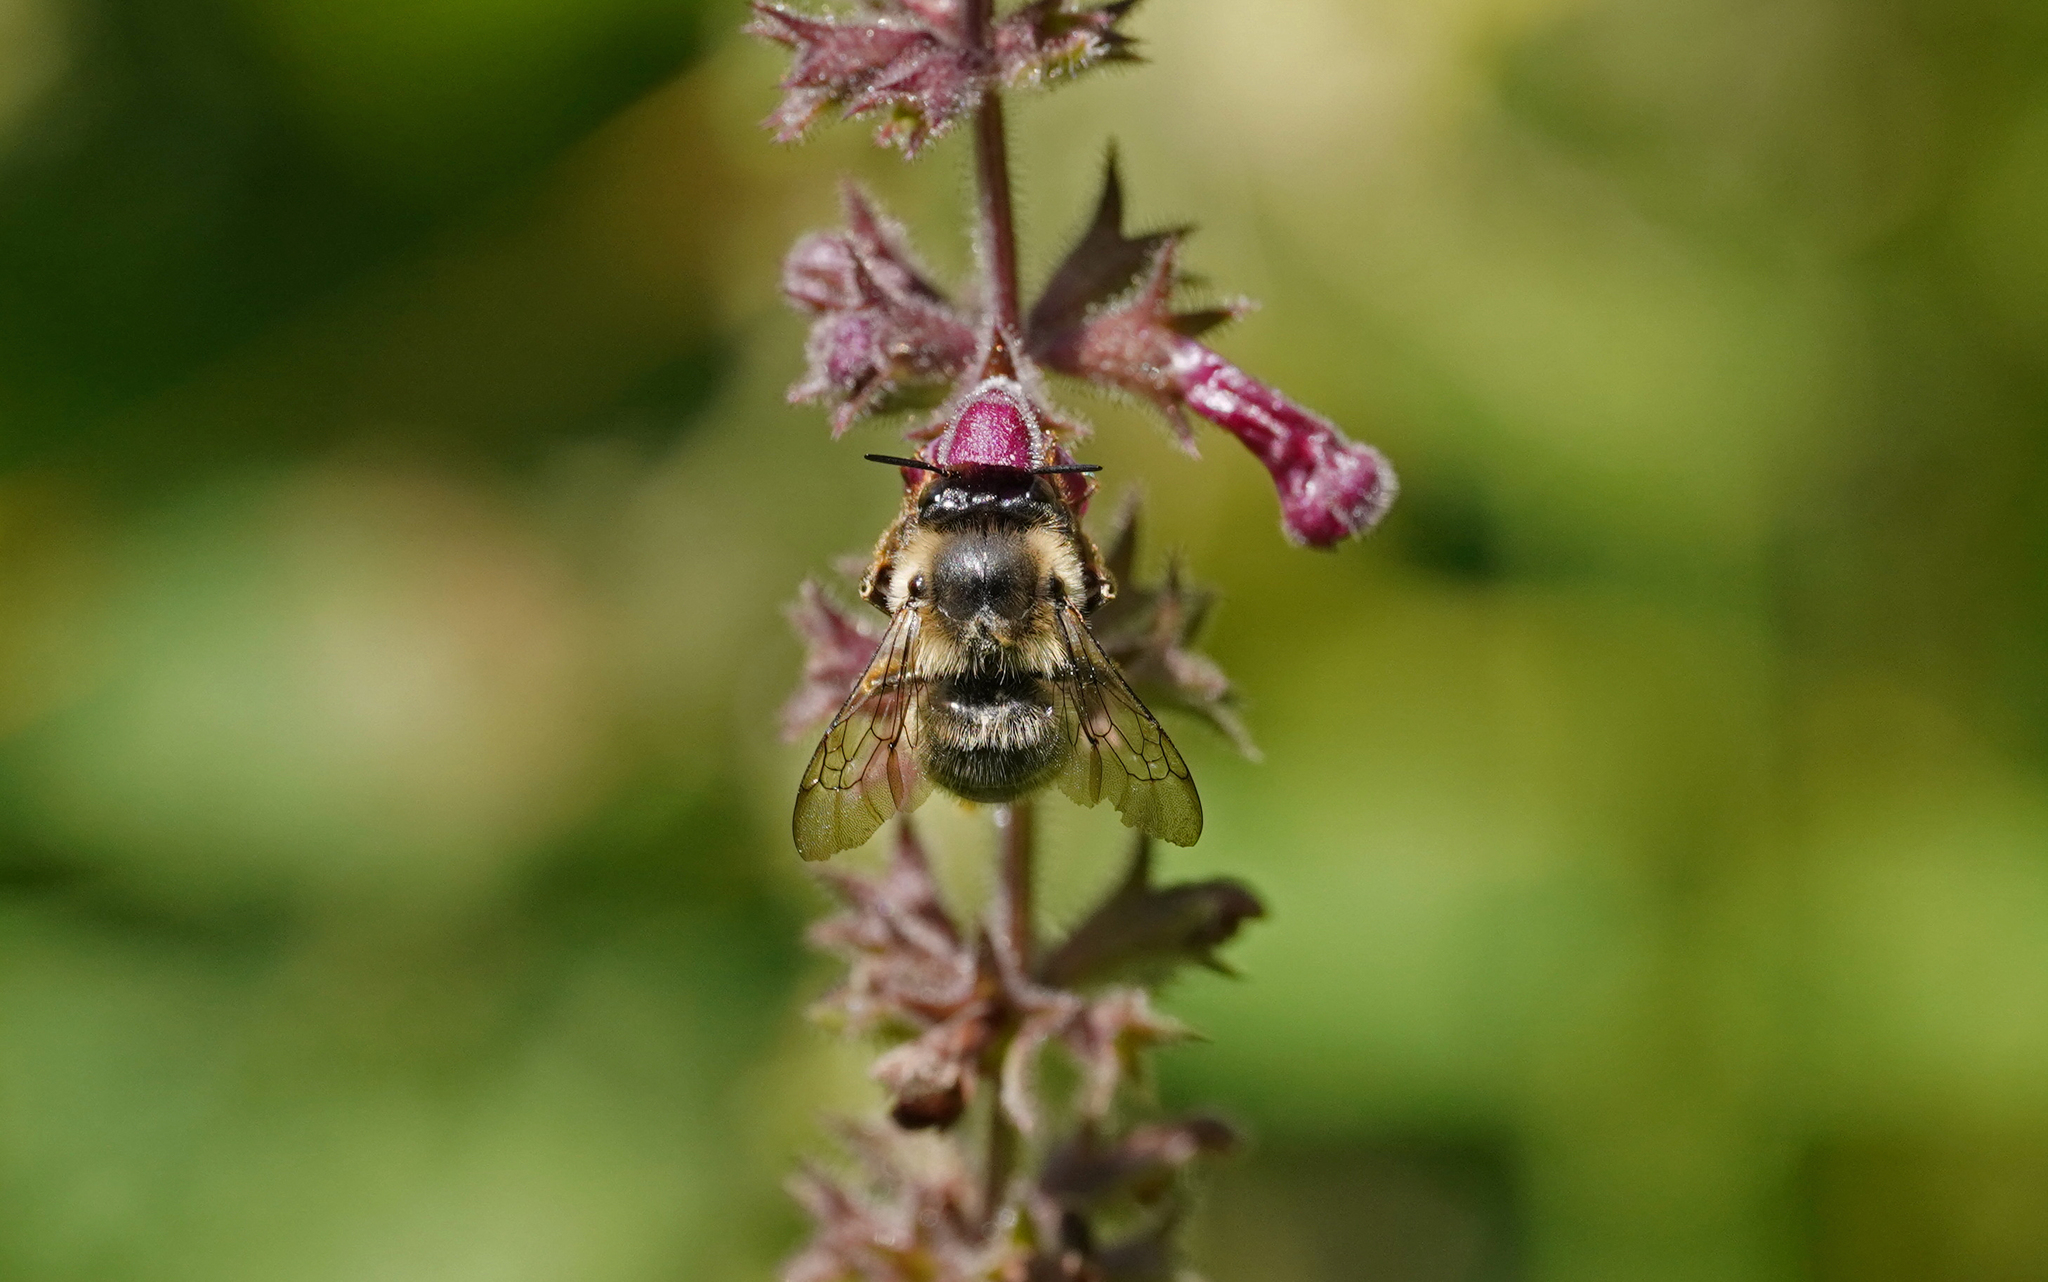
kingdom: Animalia
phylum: Arthropoda
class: Insecta
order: Hymenoptera
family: Apidae
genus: Anthophora
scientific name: Anthophora furcata
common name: Fork-tailed flower bee
